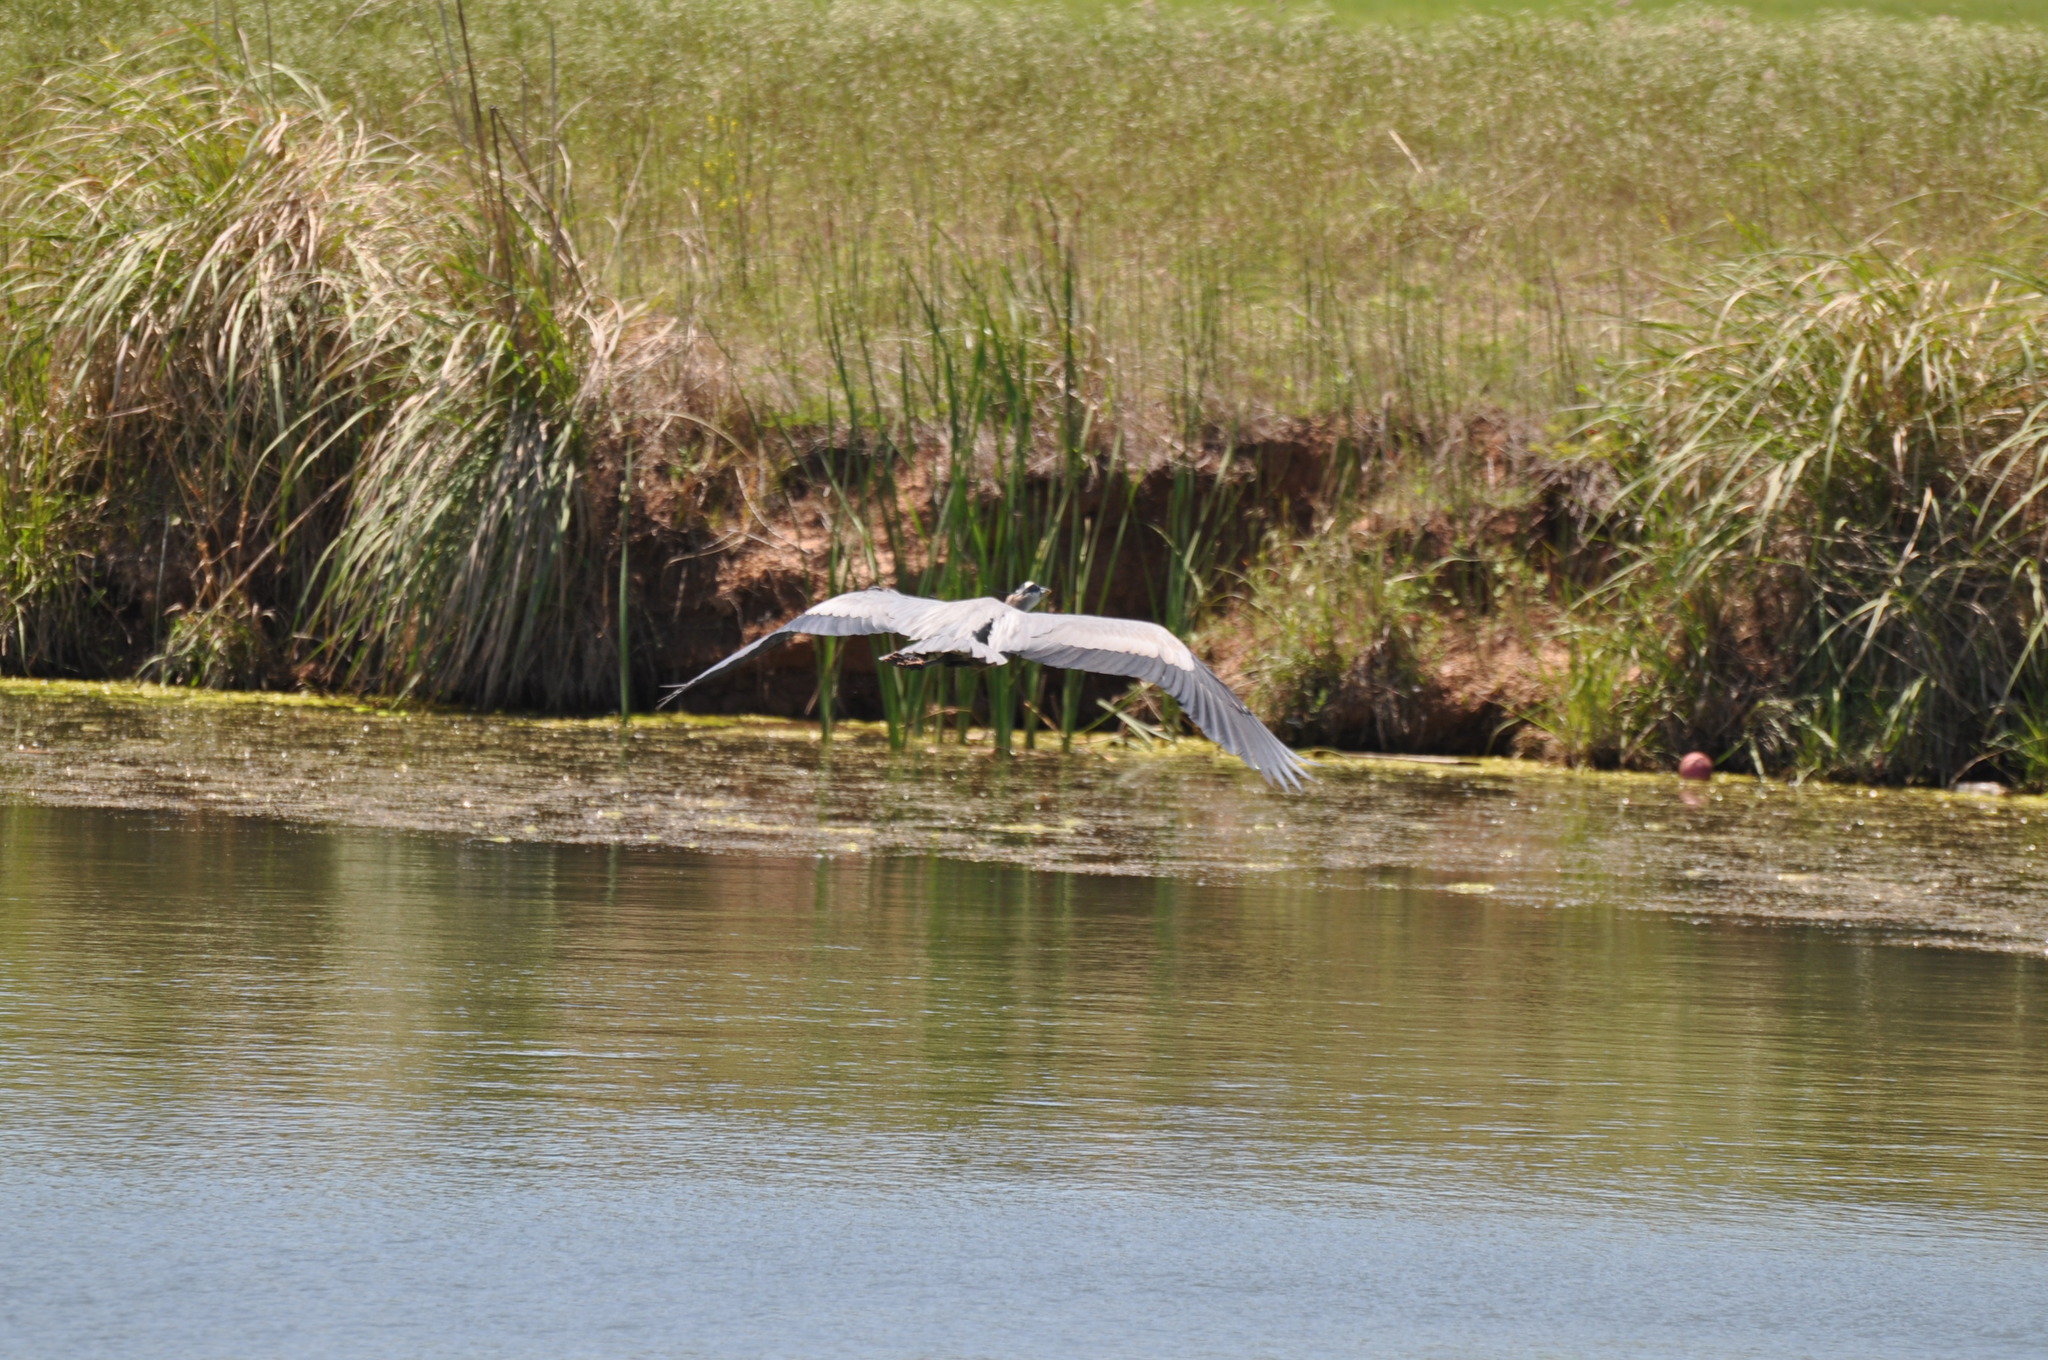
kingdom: Animalia
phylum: Chordata
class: Aves
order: Pelecaniformes
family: Ardeidae
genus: Ardea
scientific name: Ardea herodias
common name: Great blue heron
